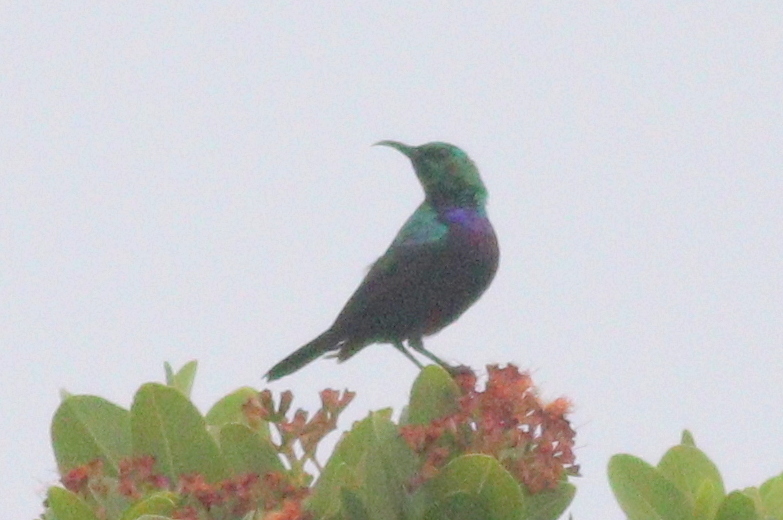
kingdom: Animalia
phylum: Chordata
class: Aves
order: Passeriformes
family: Nectariniidae
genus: Cinnyris
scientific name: Cinnyris bifasciatus
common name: Purple-banded sunbird
